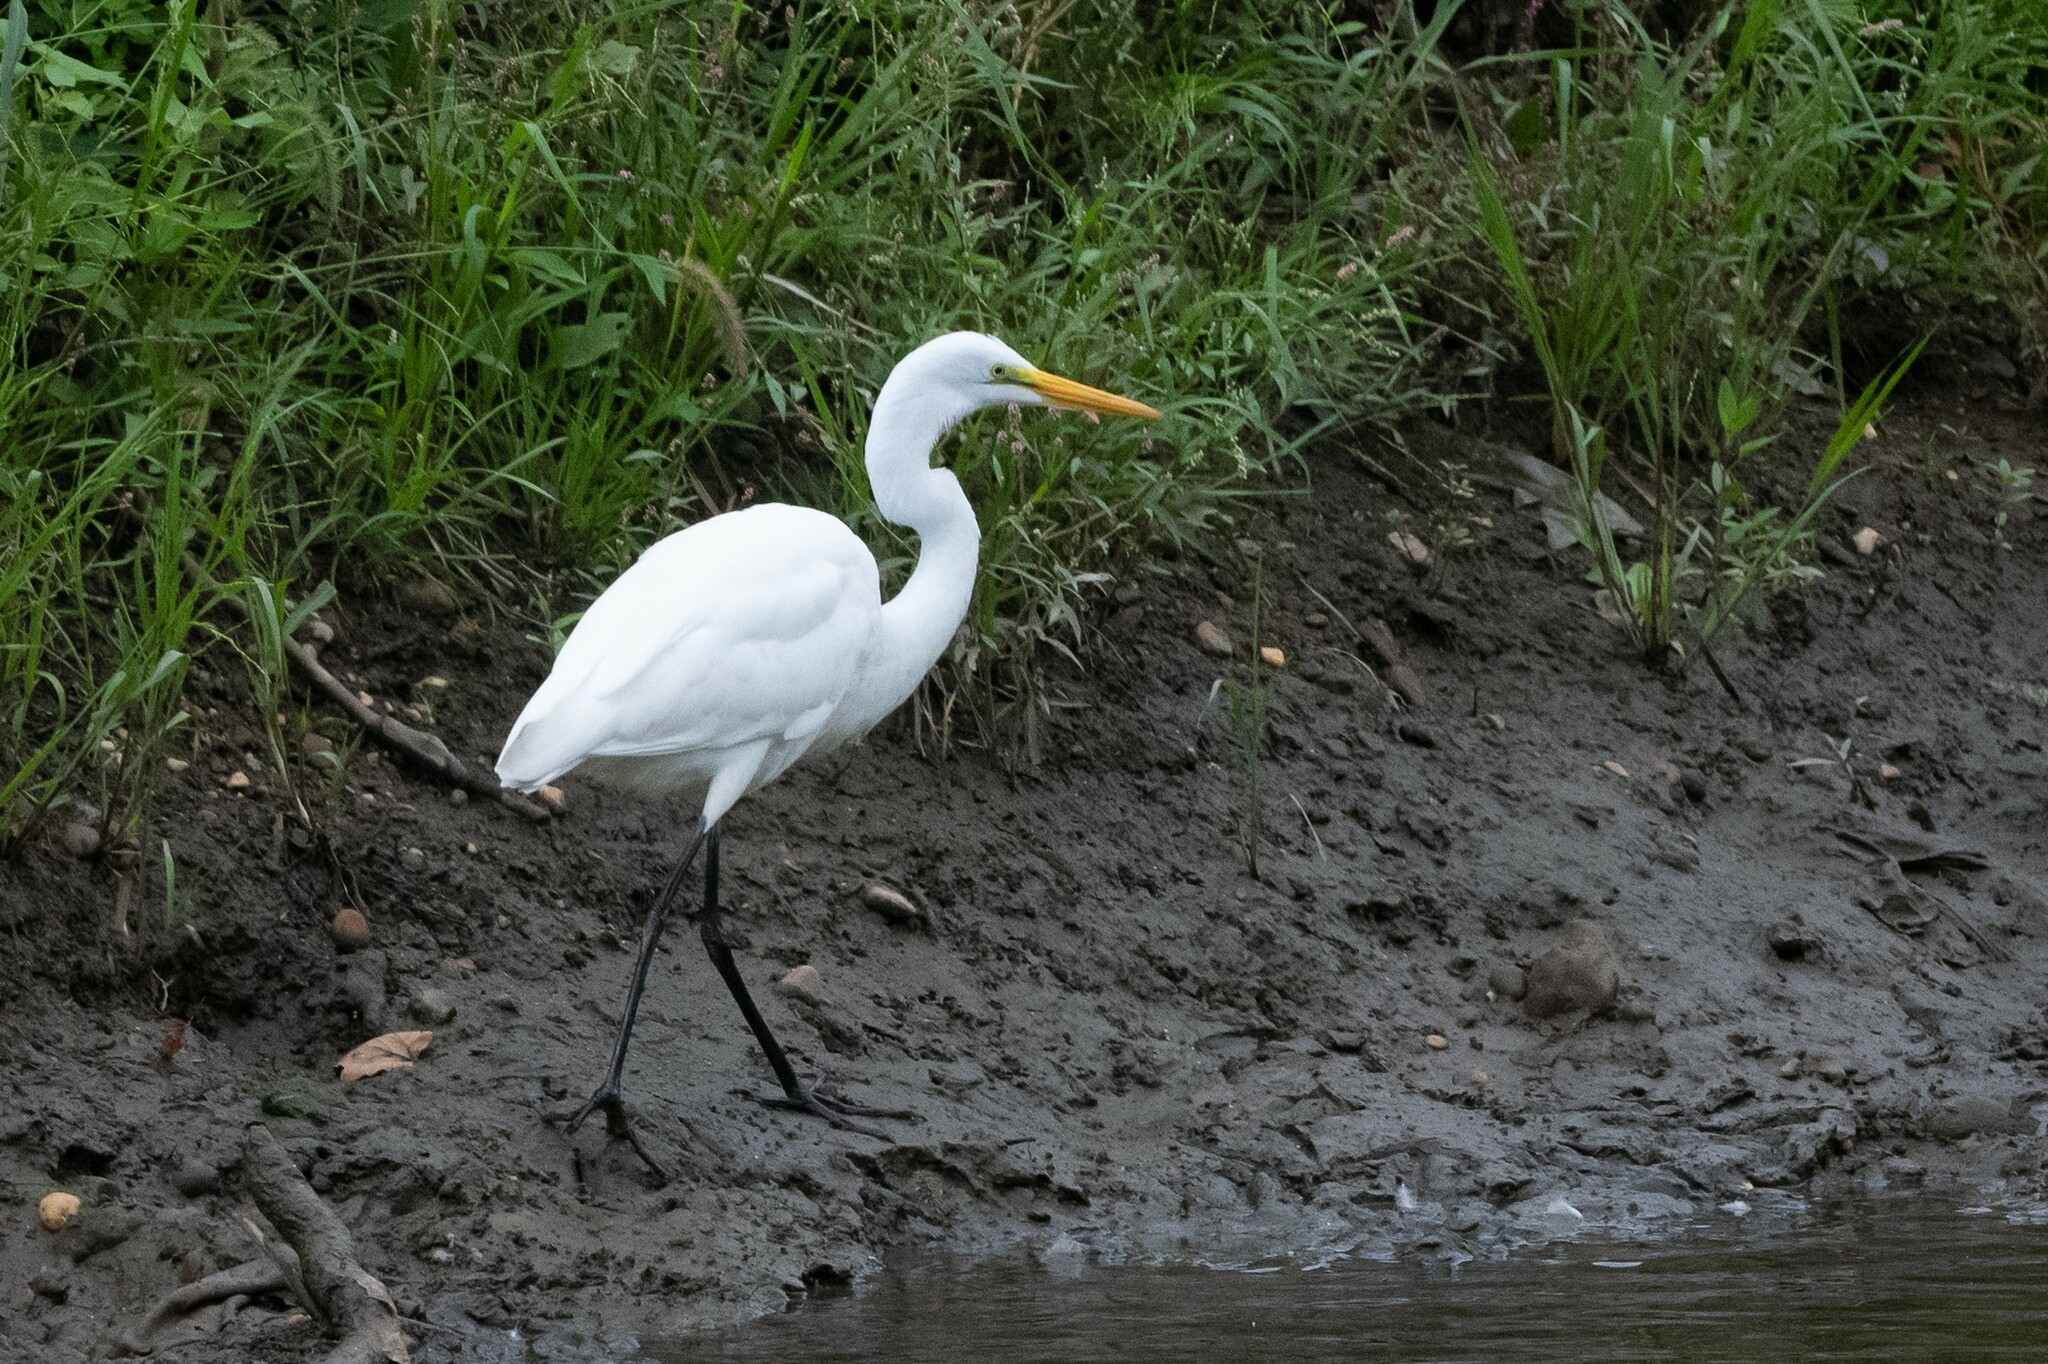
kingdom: Animalia
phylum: Chordata
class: Aves
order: Pelecaniformes
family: Ardeidae
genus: Ardea
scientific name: Ardea alba
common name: Great egret
